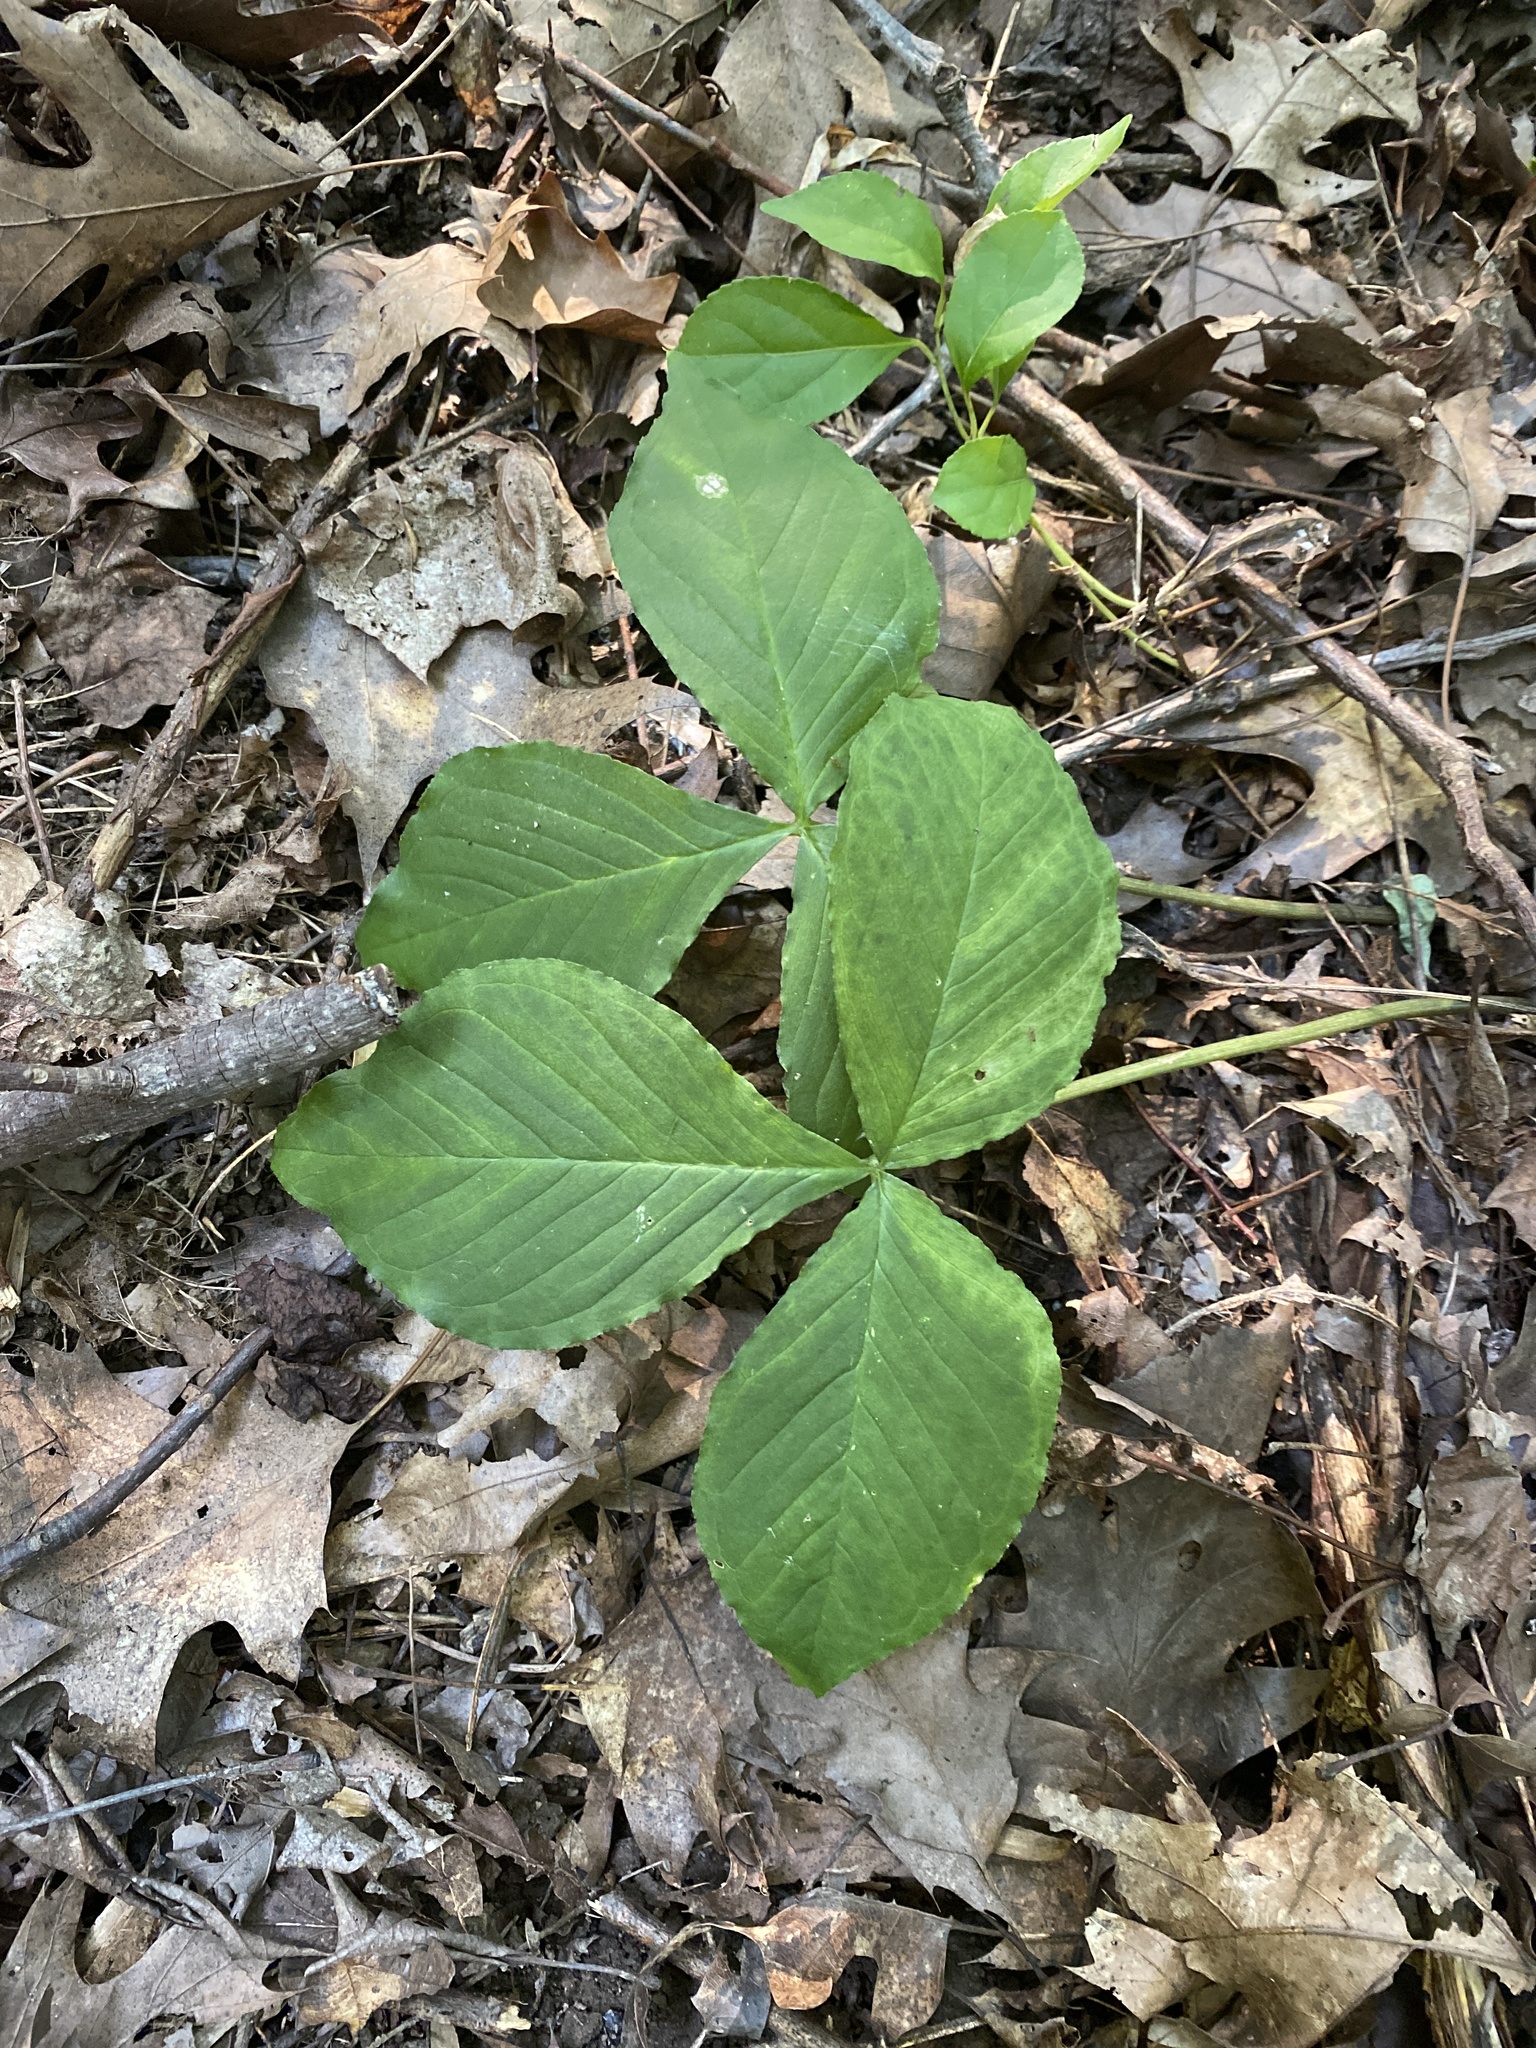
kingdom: Plantae
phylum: Tracheophyta
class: Liliopsida
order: Alismatales
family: Araceae
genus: Arisaema
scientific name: Arisaema triphyllum
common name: Jack-in-the-pulpit
